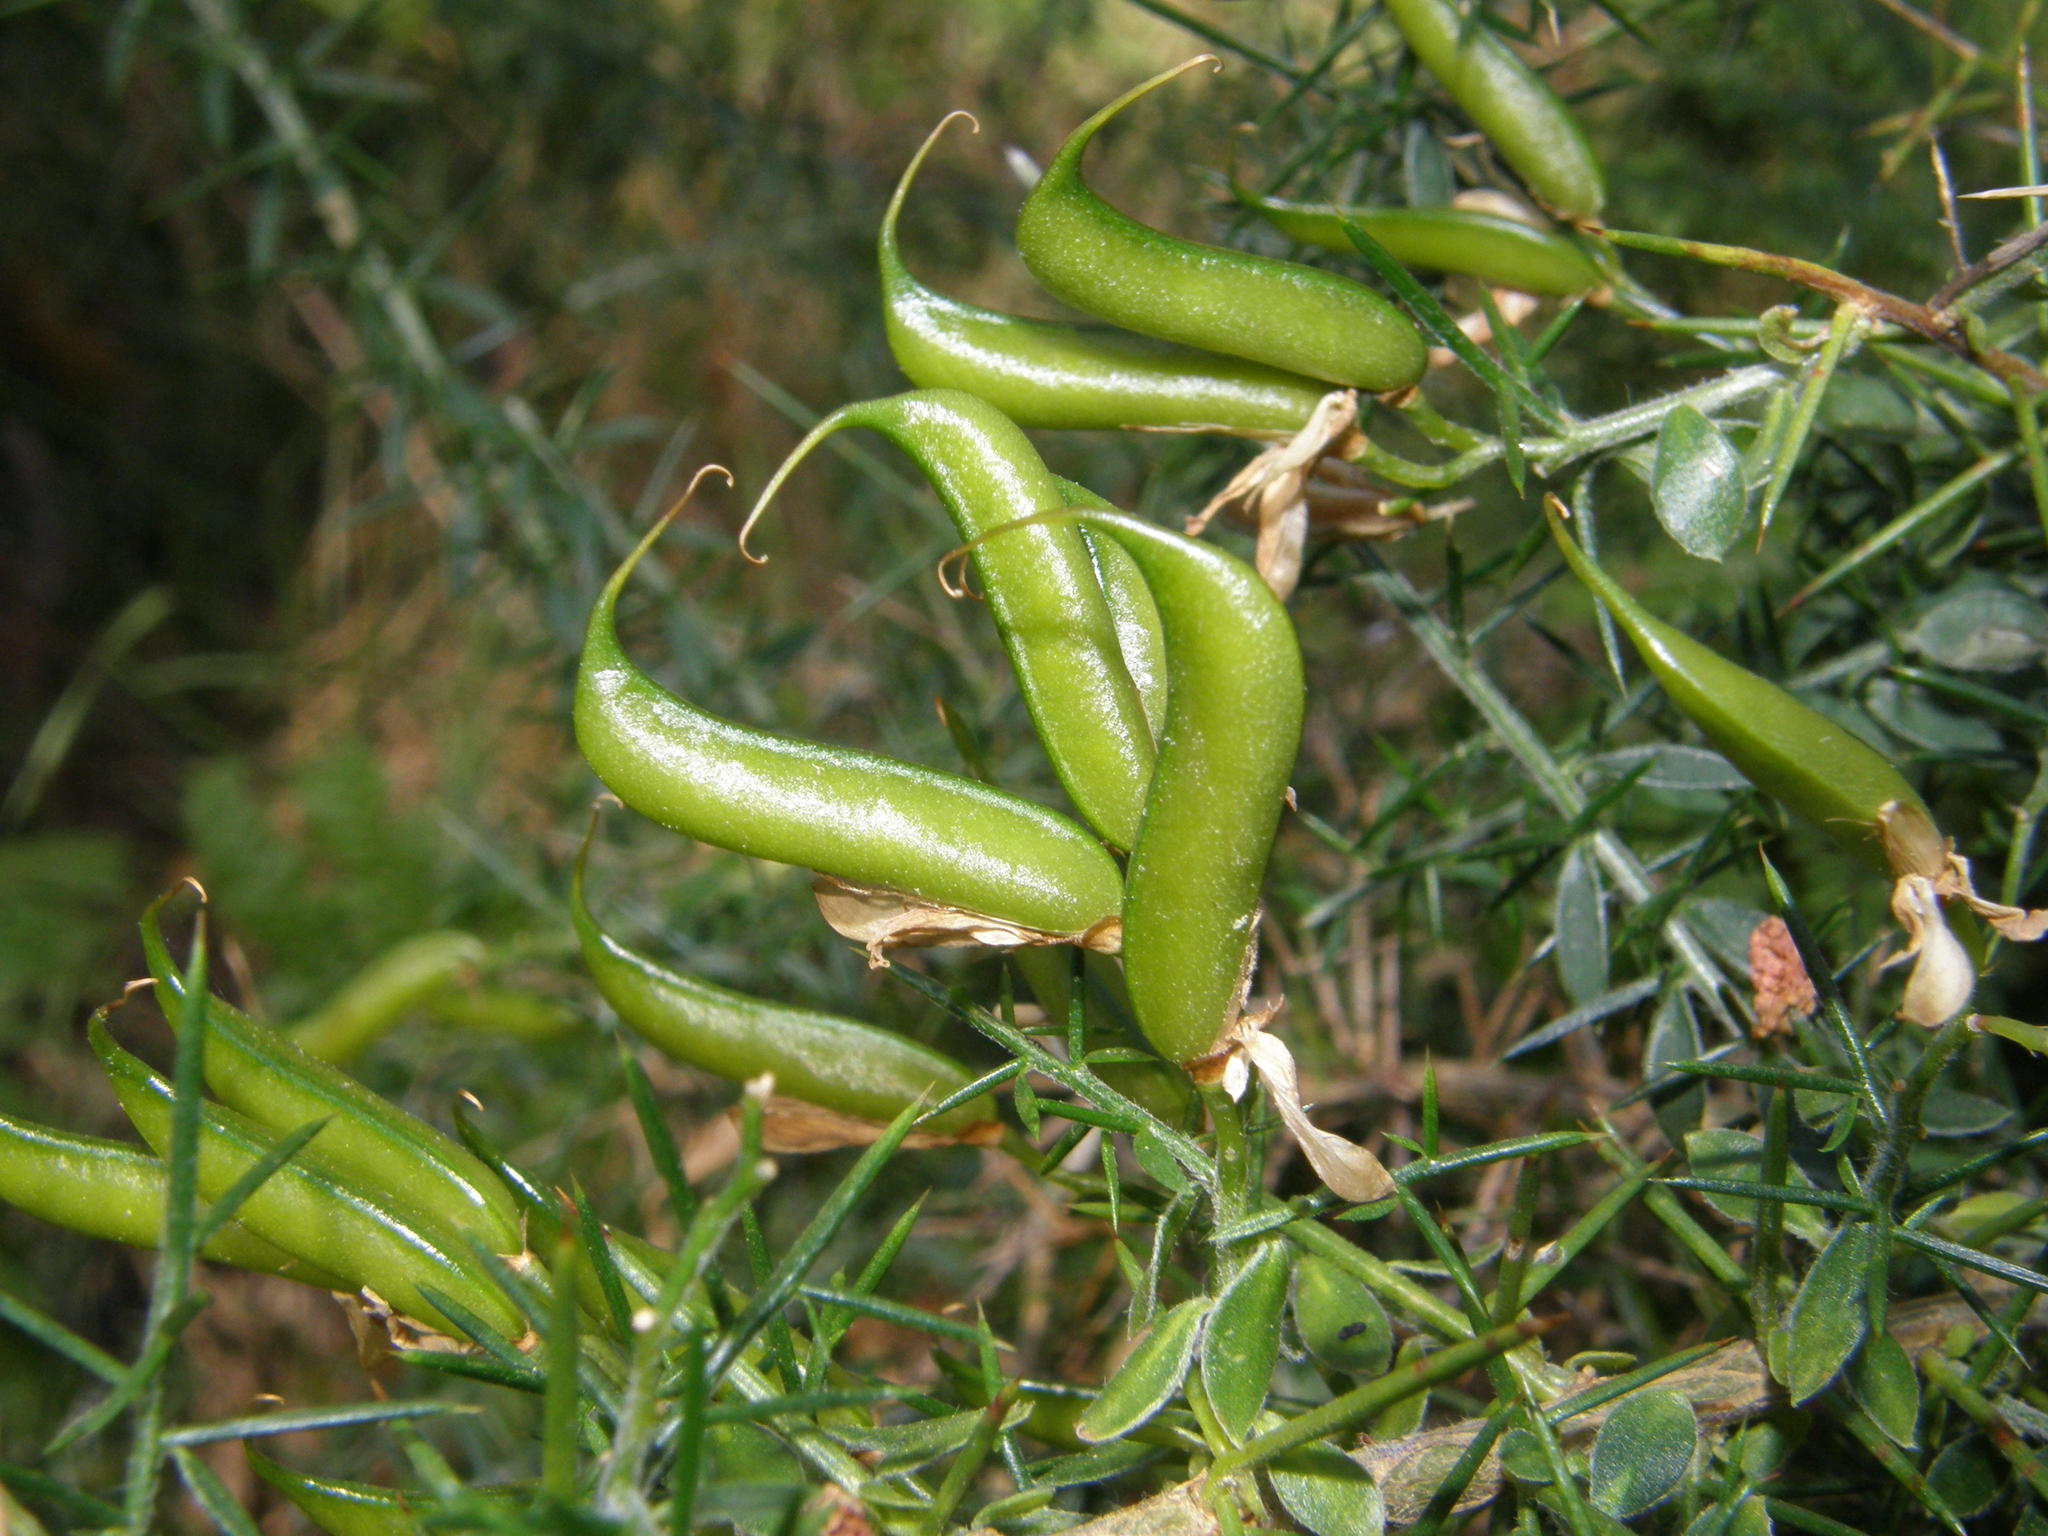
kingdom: Plantae
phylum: Tracheophyta
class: Magnoliopsida
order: Fabales
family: Fabaceae
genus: Genista
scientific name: Genista falcata
